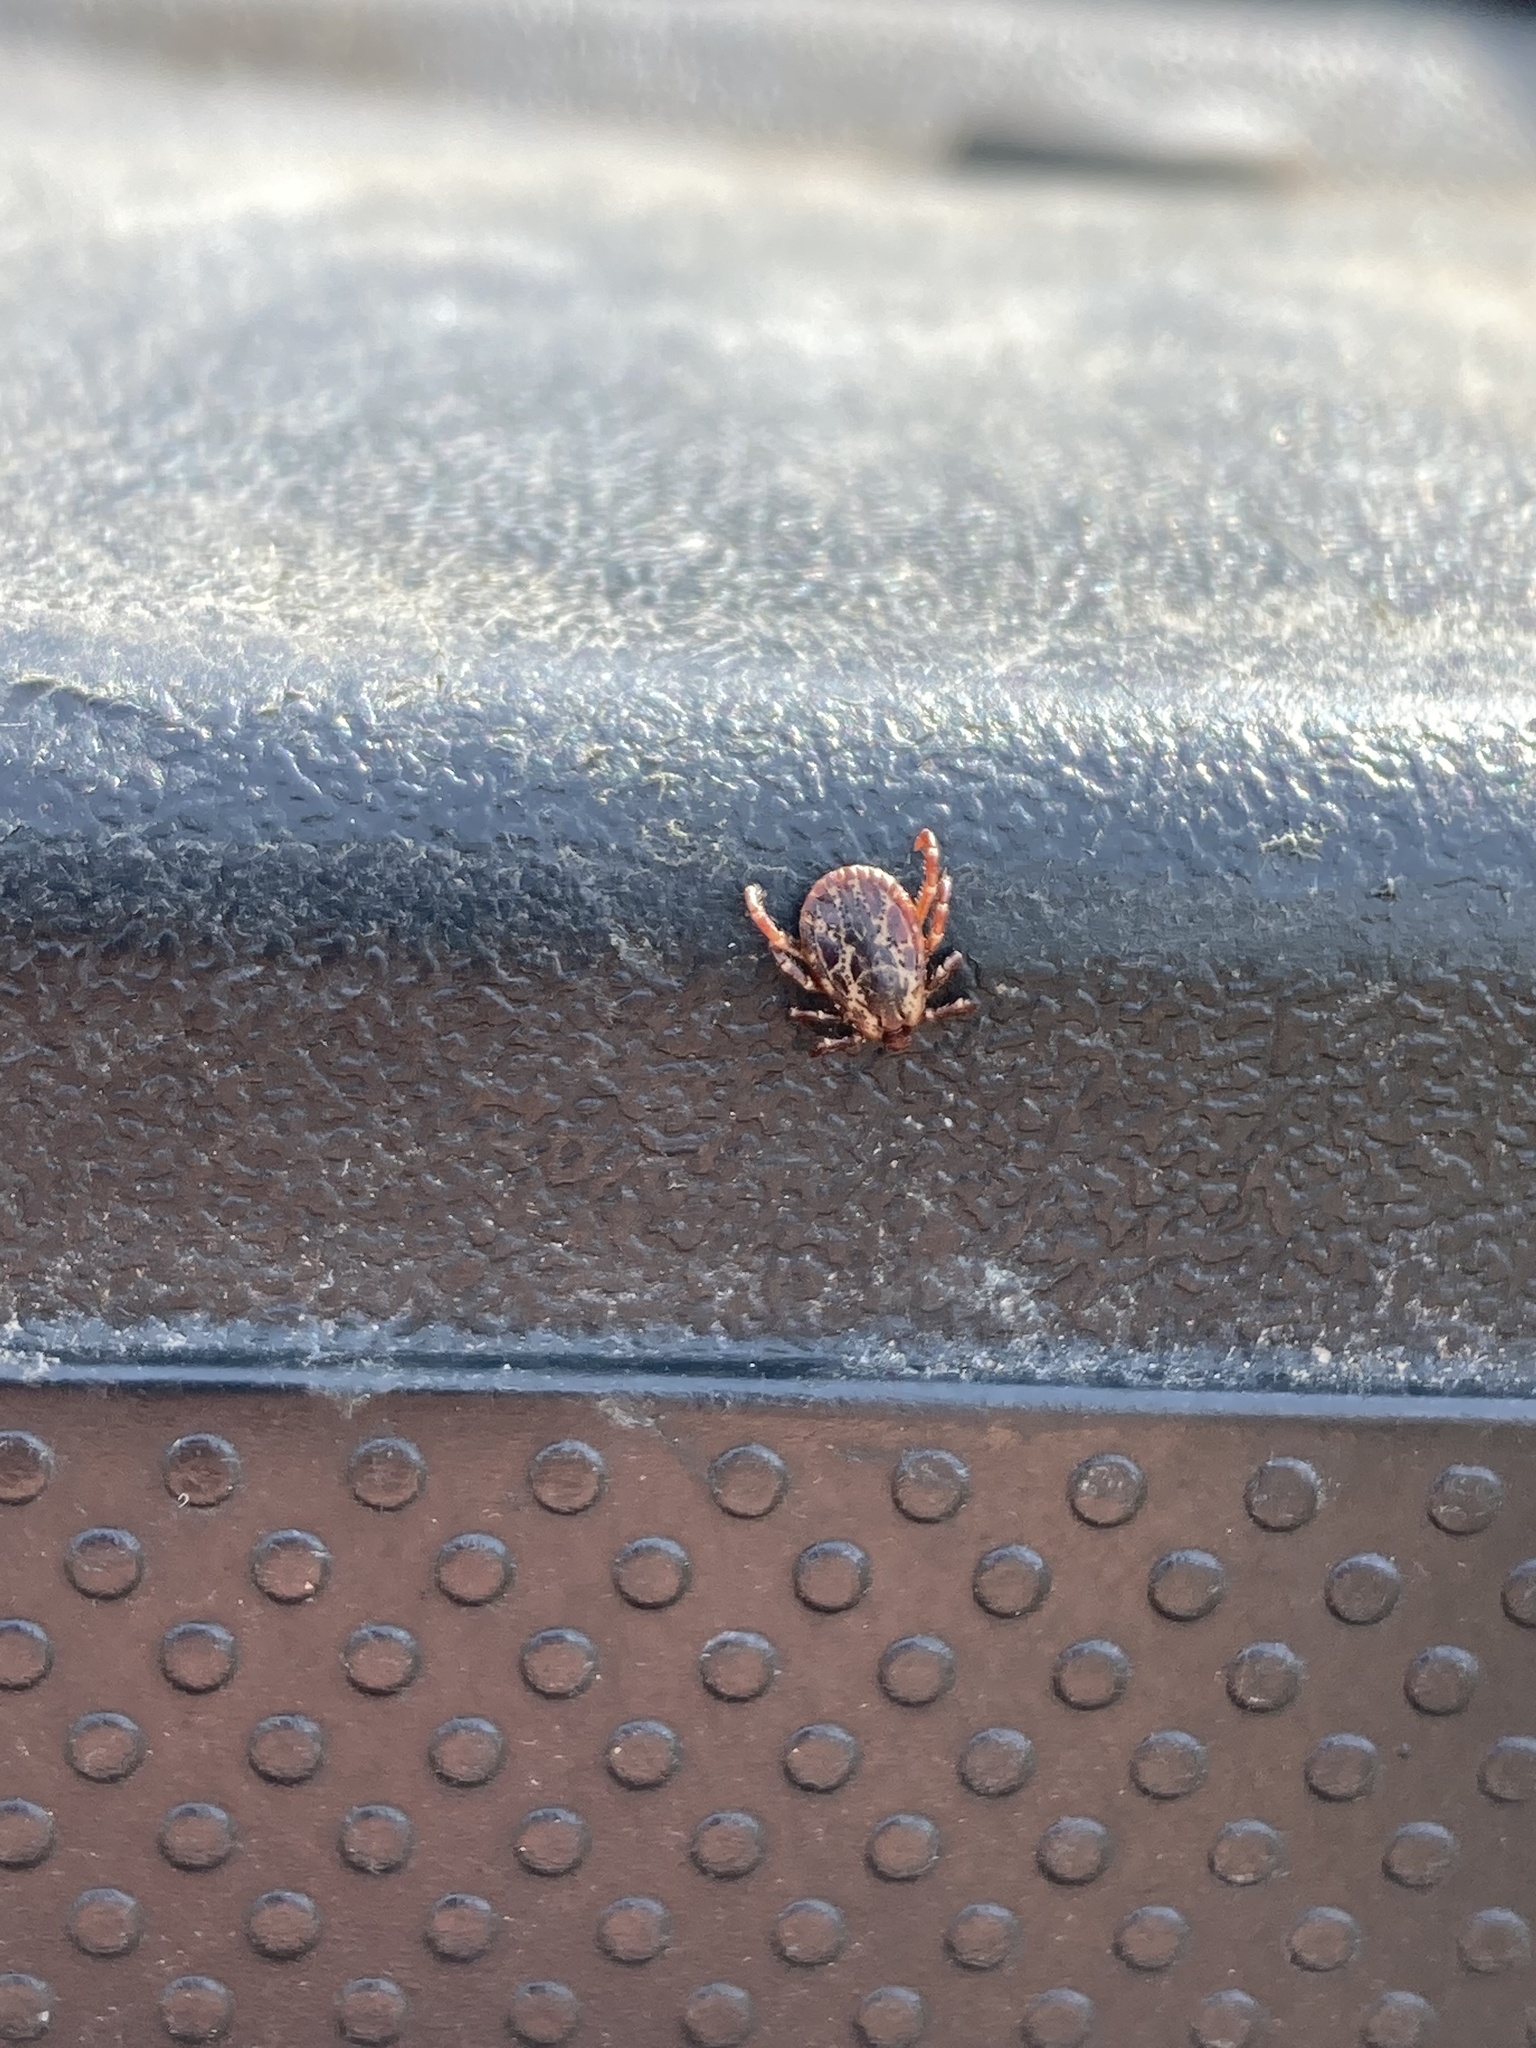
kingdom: Animalia
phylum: Arthropoda
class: Arachnida
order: Ixodida
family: Ixodidae
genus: Dermacentor
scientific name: Dermacentor variabilis
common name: American dog tick
